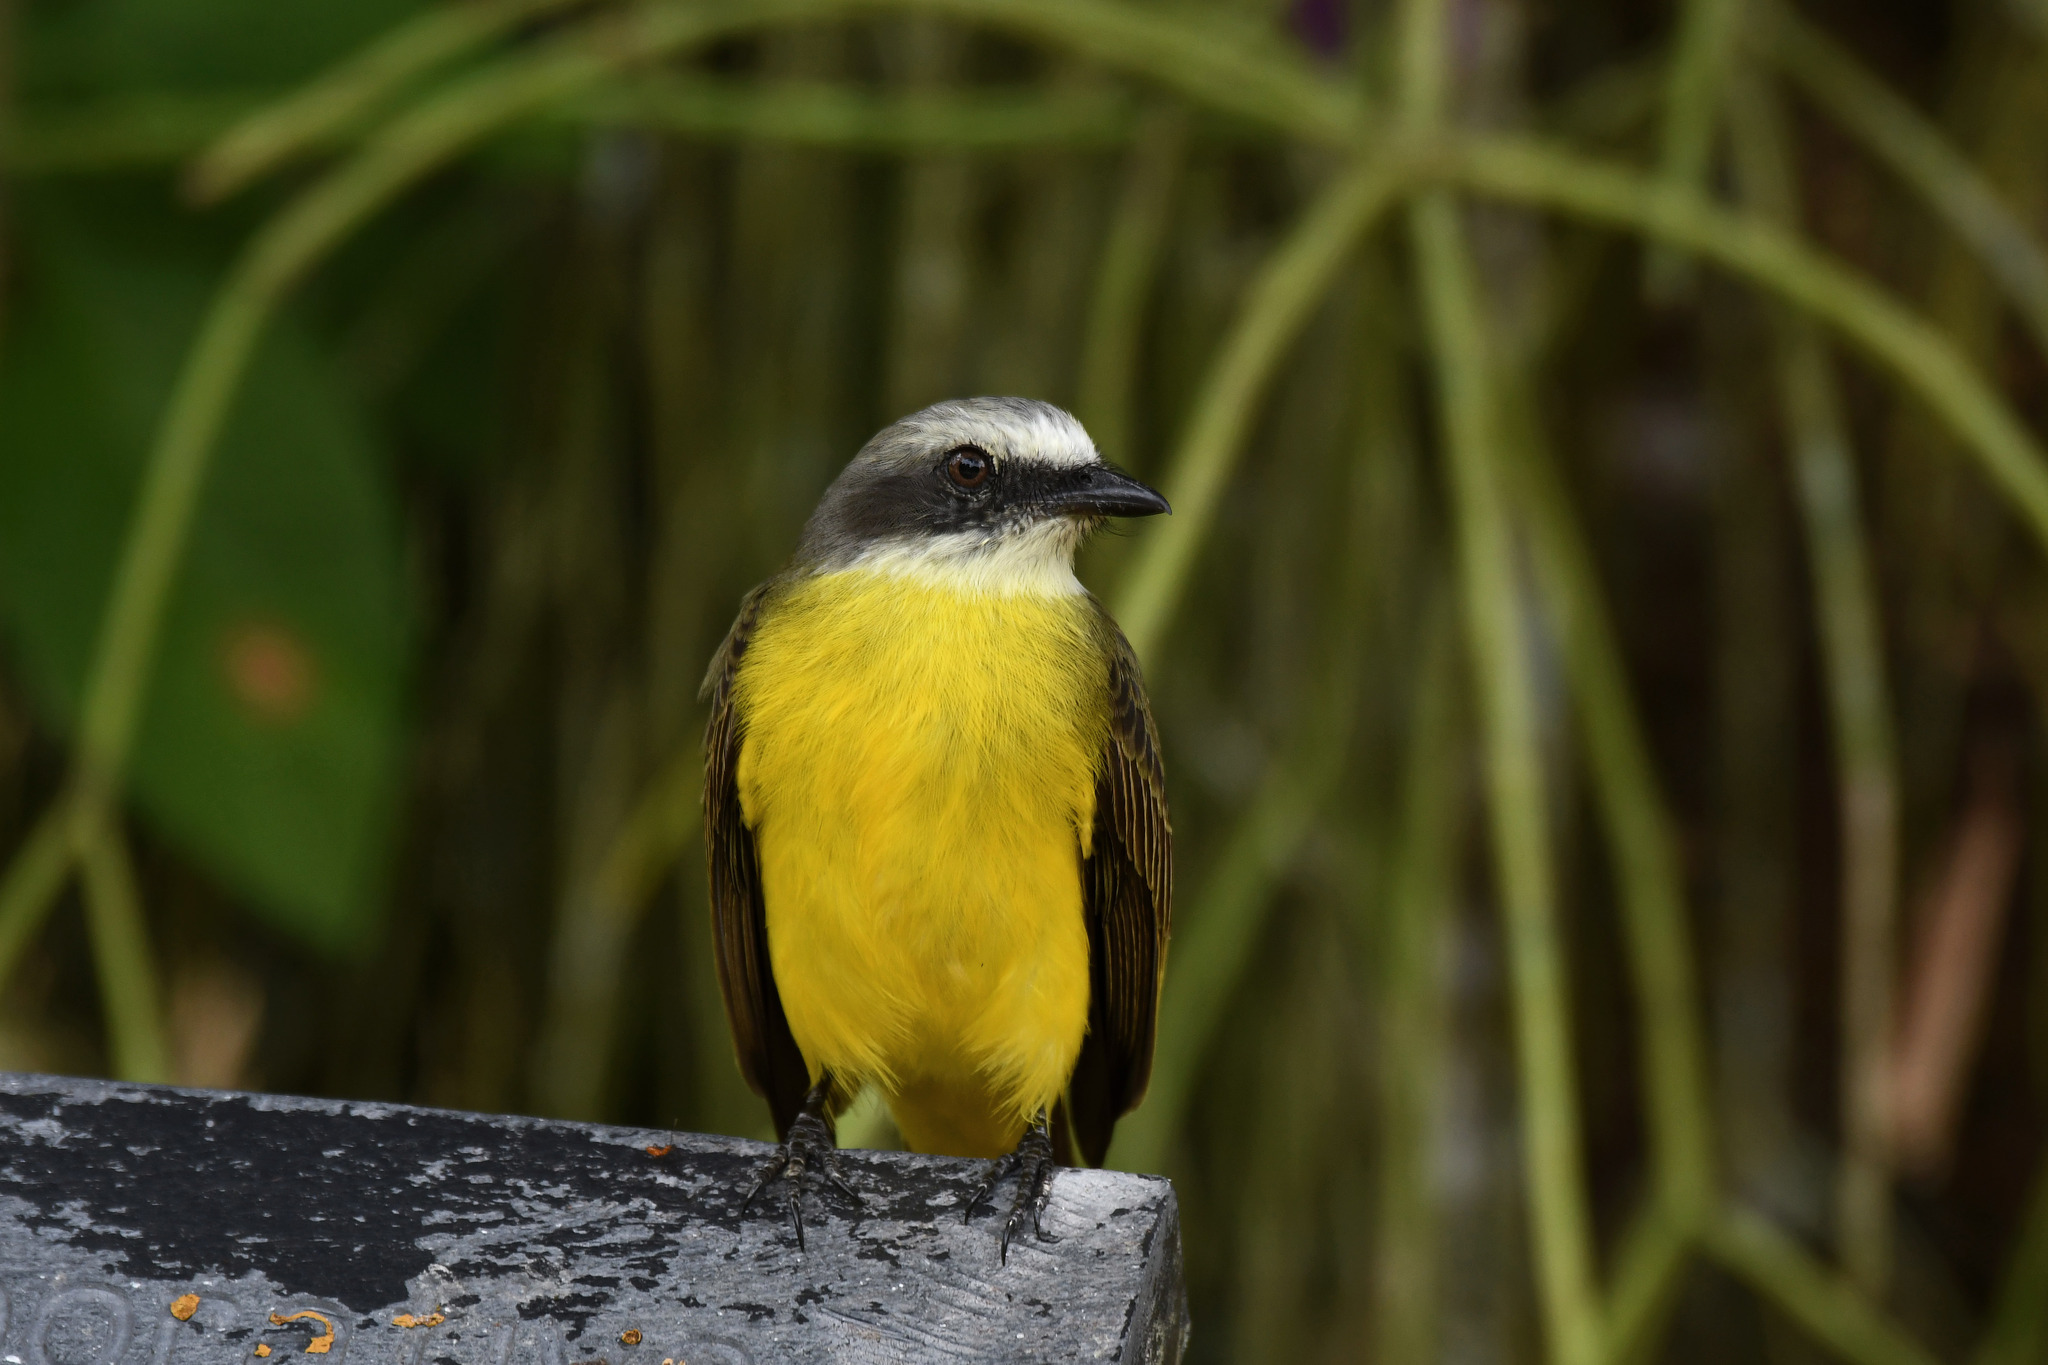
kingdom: Animalia
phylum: Chordata
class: Aves
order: Passeriformes
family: Tyrannidae
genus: Myiozetetes
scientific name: Myiozetetes granadensis
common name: Gray-capped flycatcher
